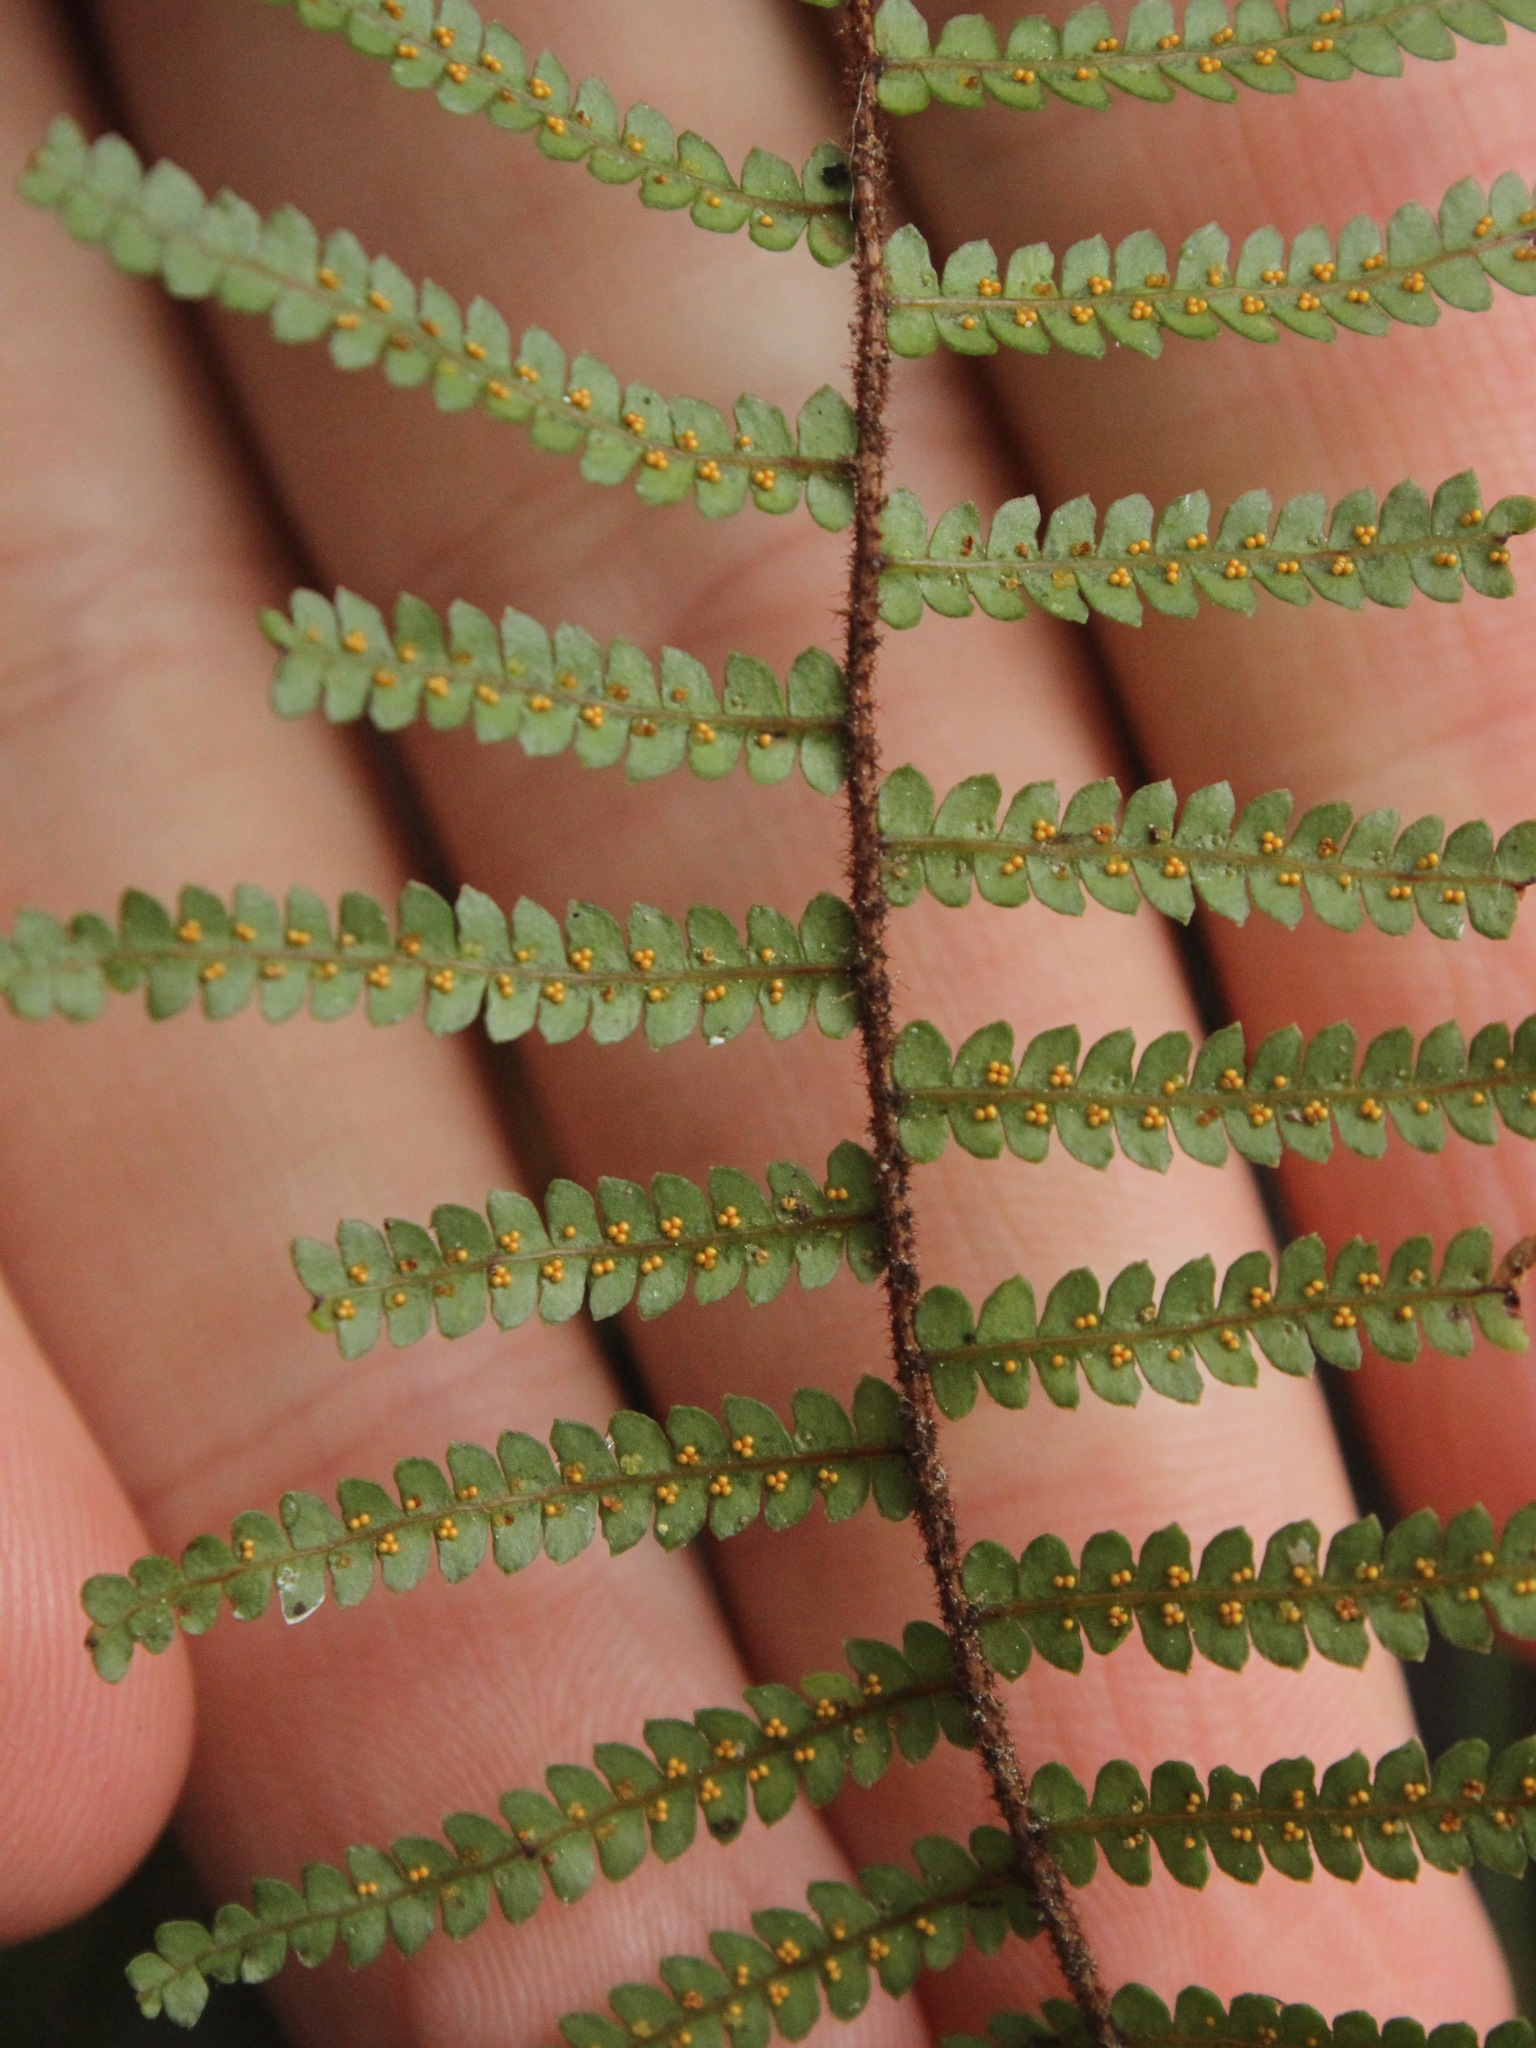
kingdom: Plantae
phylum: Tracheophyta
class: Polypodiopsida
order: Gleicheniales
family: Gleicheniaceae
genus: Gleichenia
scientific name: Gleichenia microphylla
